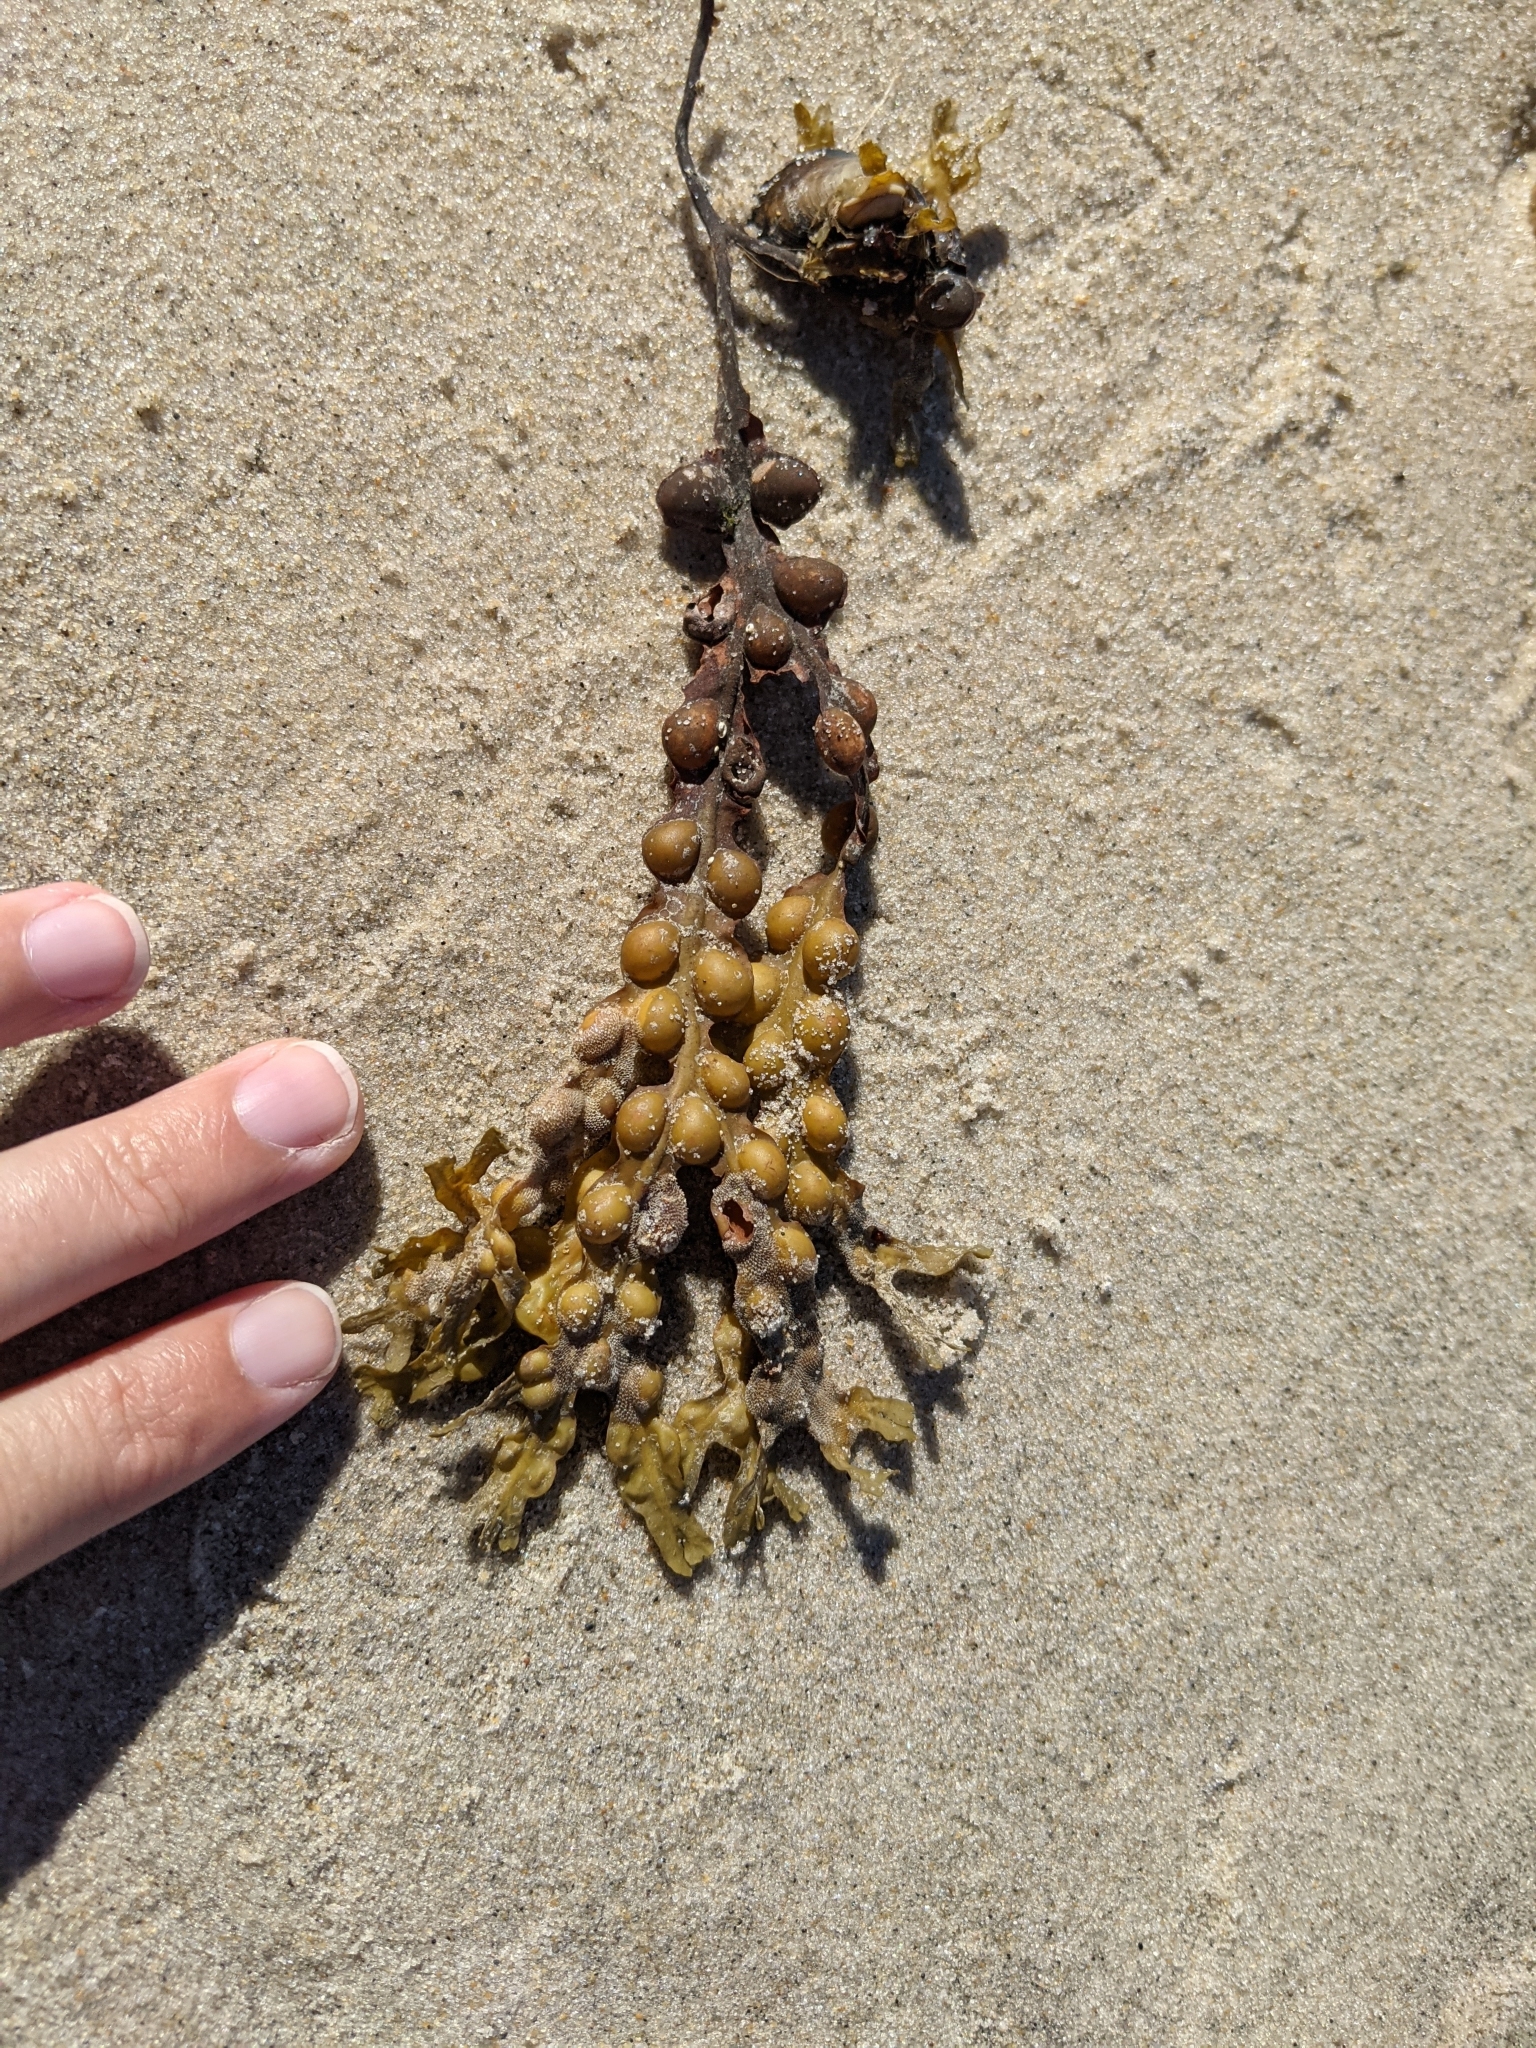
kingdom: Chromista
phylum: Ochrophyta
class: Phaeophyceae
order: Fucales
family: Fucaceae
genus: Fucus
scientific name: Fucus vesiculosus
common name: Bladder wrack
